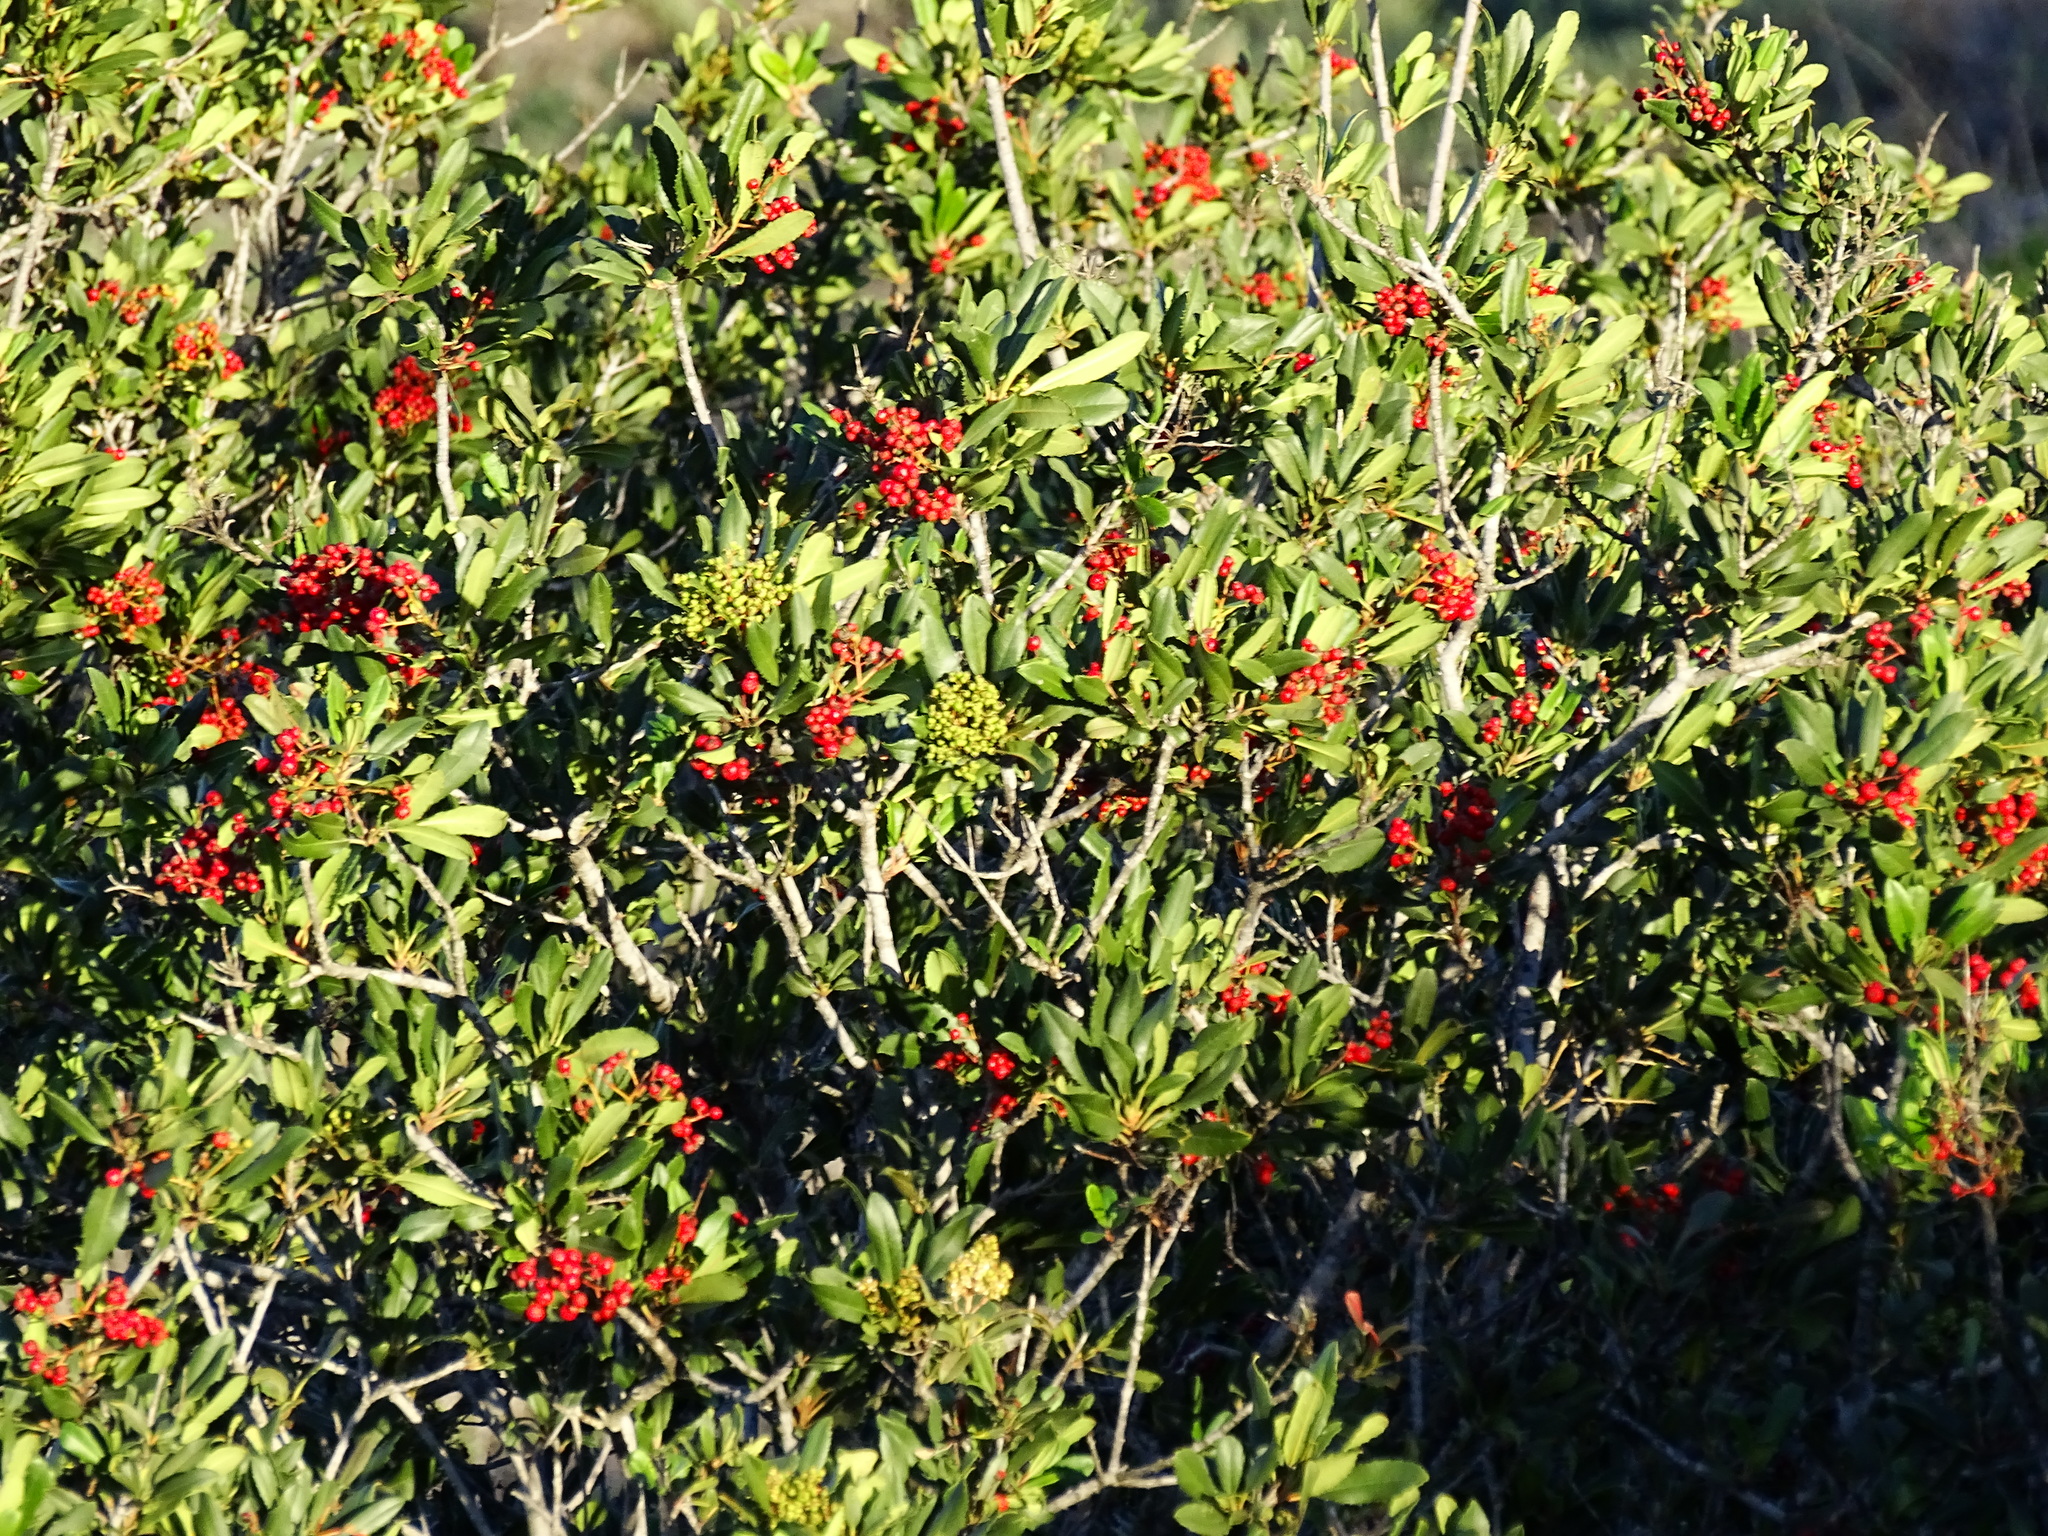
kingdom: Plantae
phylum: Tracheophyta
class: Magnoliopsida
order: Rosales
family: Rosaceae
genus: Heteromeles
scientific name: Heteromeles arbutifolia
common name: California-holly
